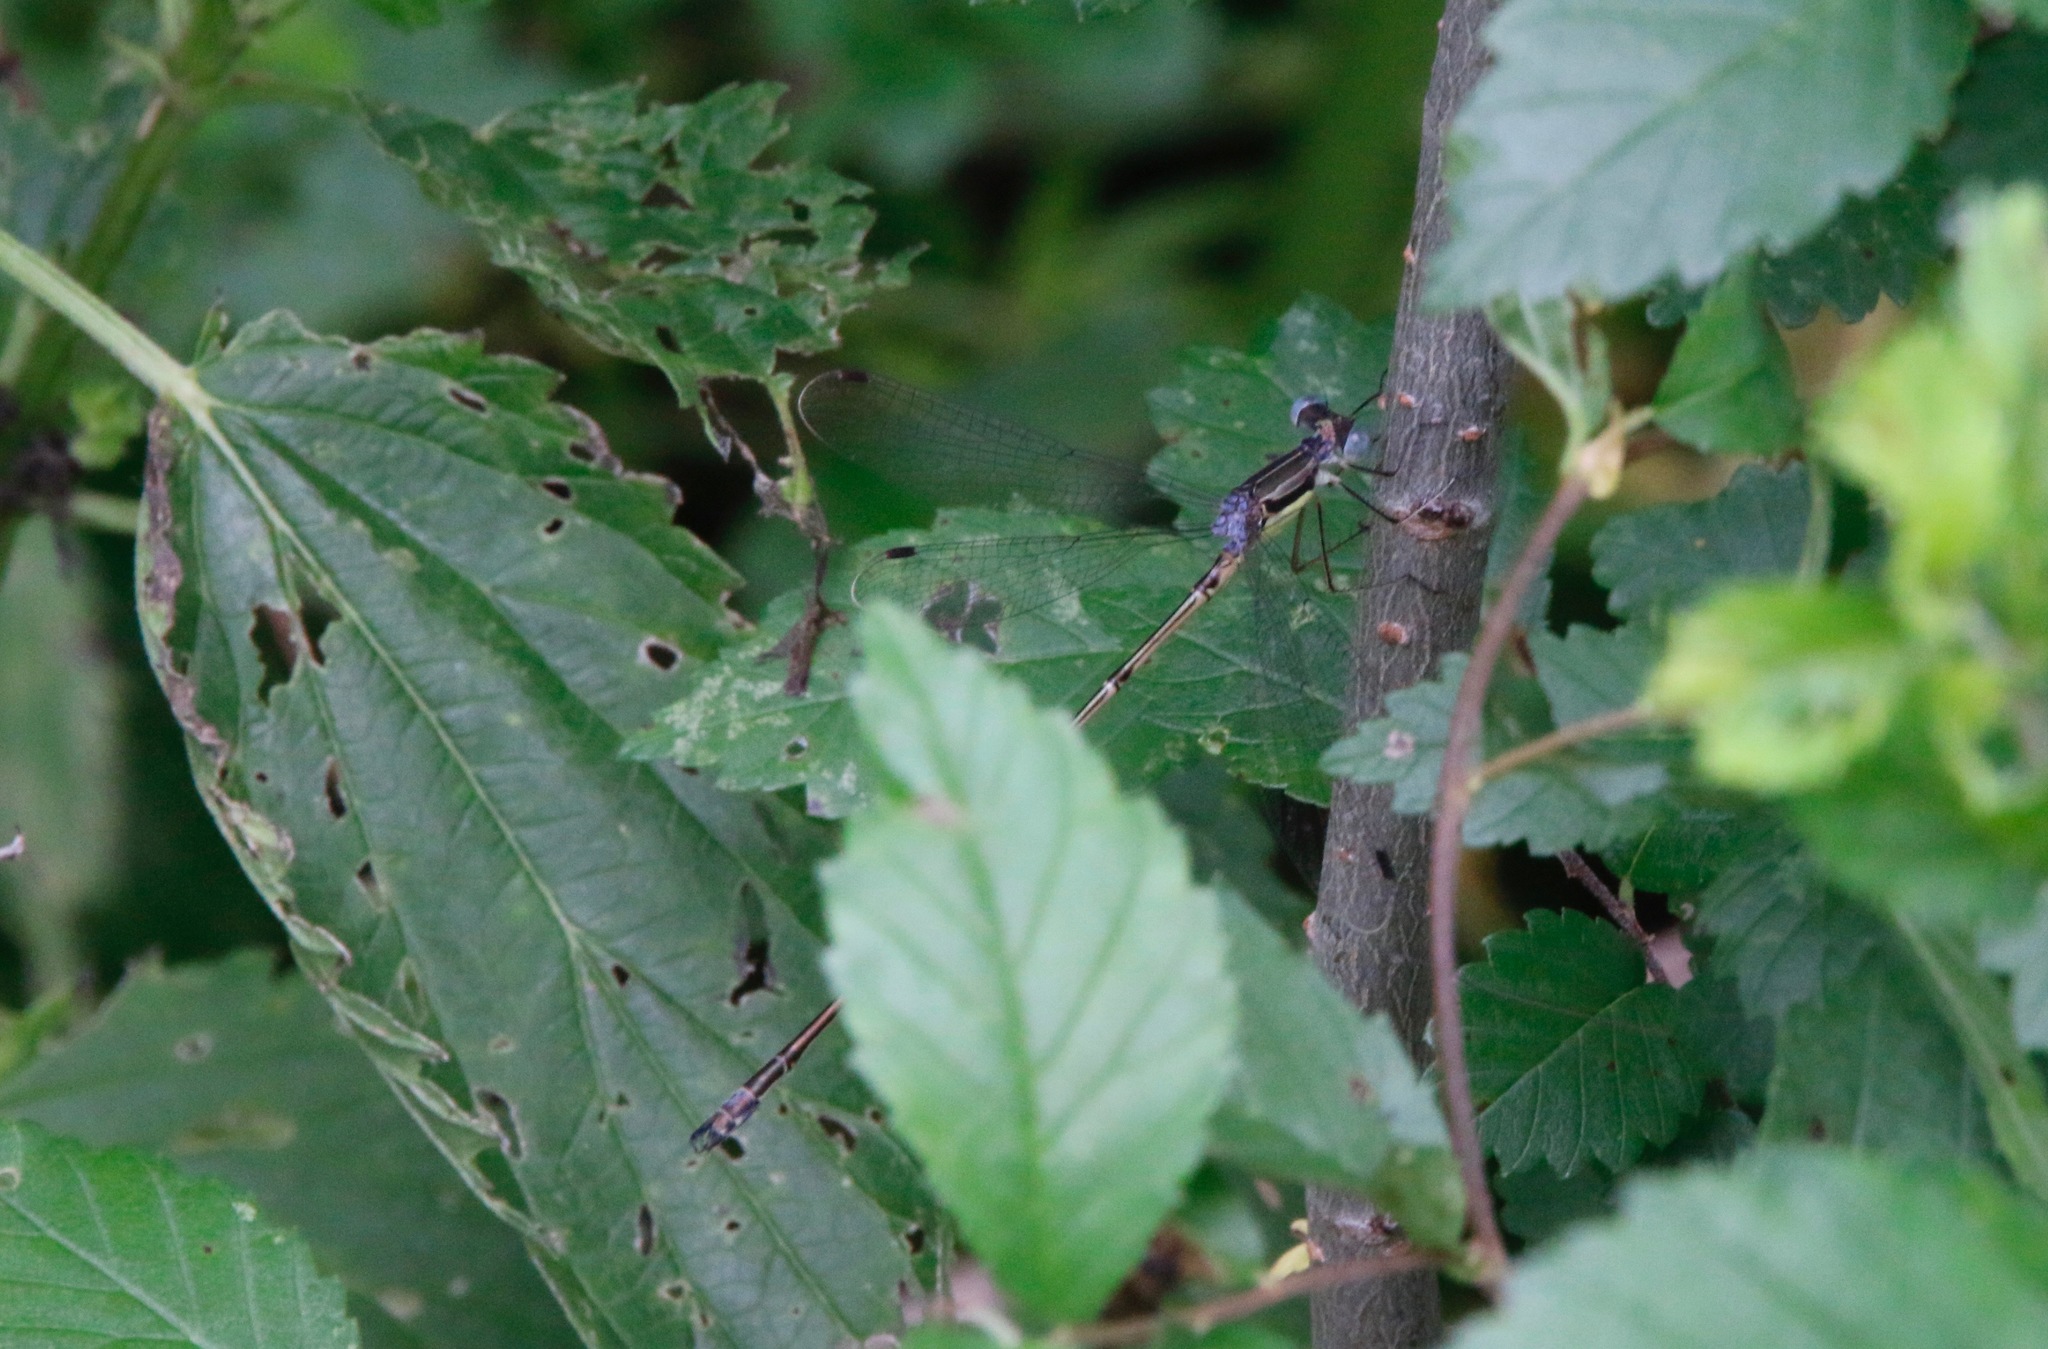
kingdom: Animalia
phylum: Arthropoda
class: Insecta
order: Odonata
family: Lestidae
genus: Lestes
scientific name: Lestes rectangularis
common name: Slender spreadwing
